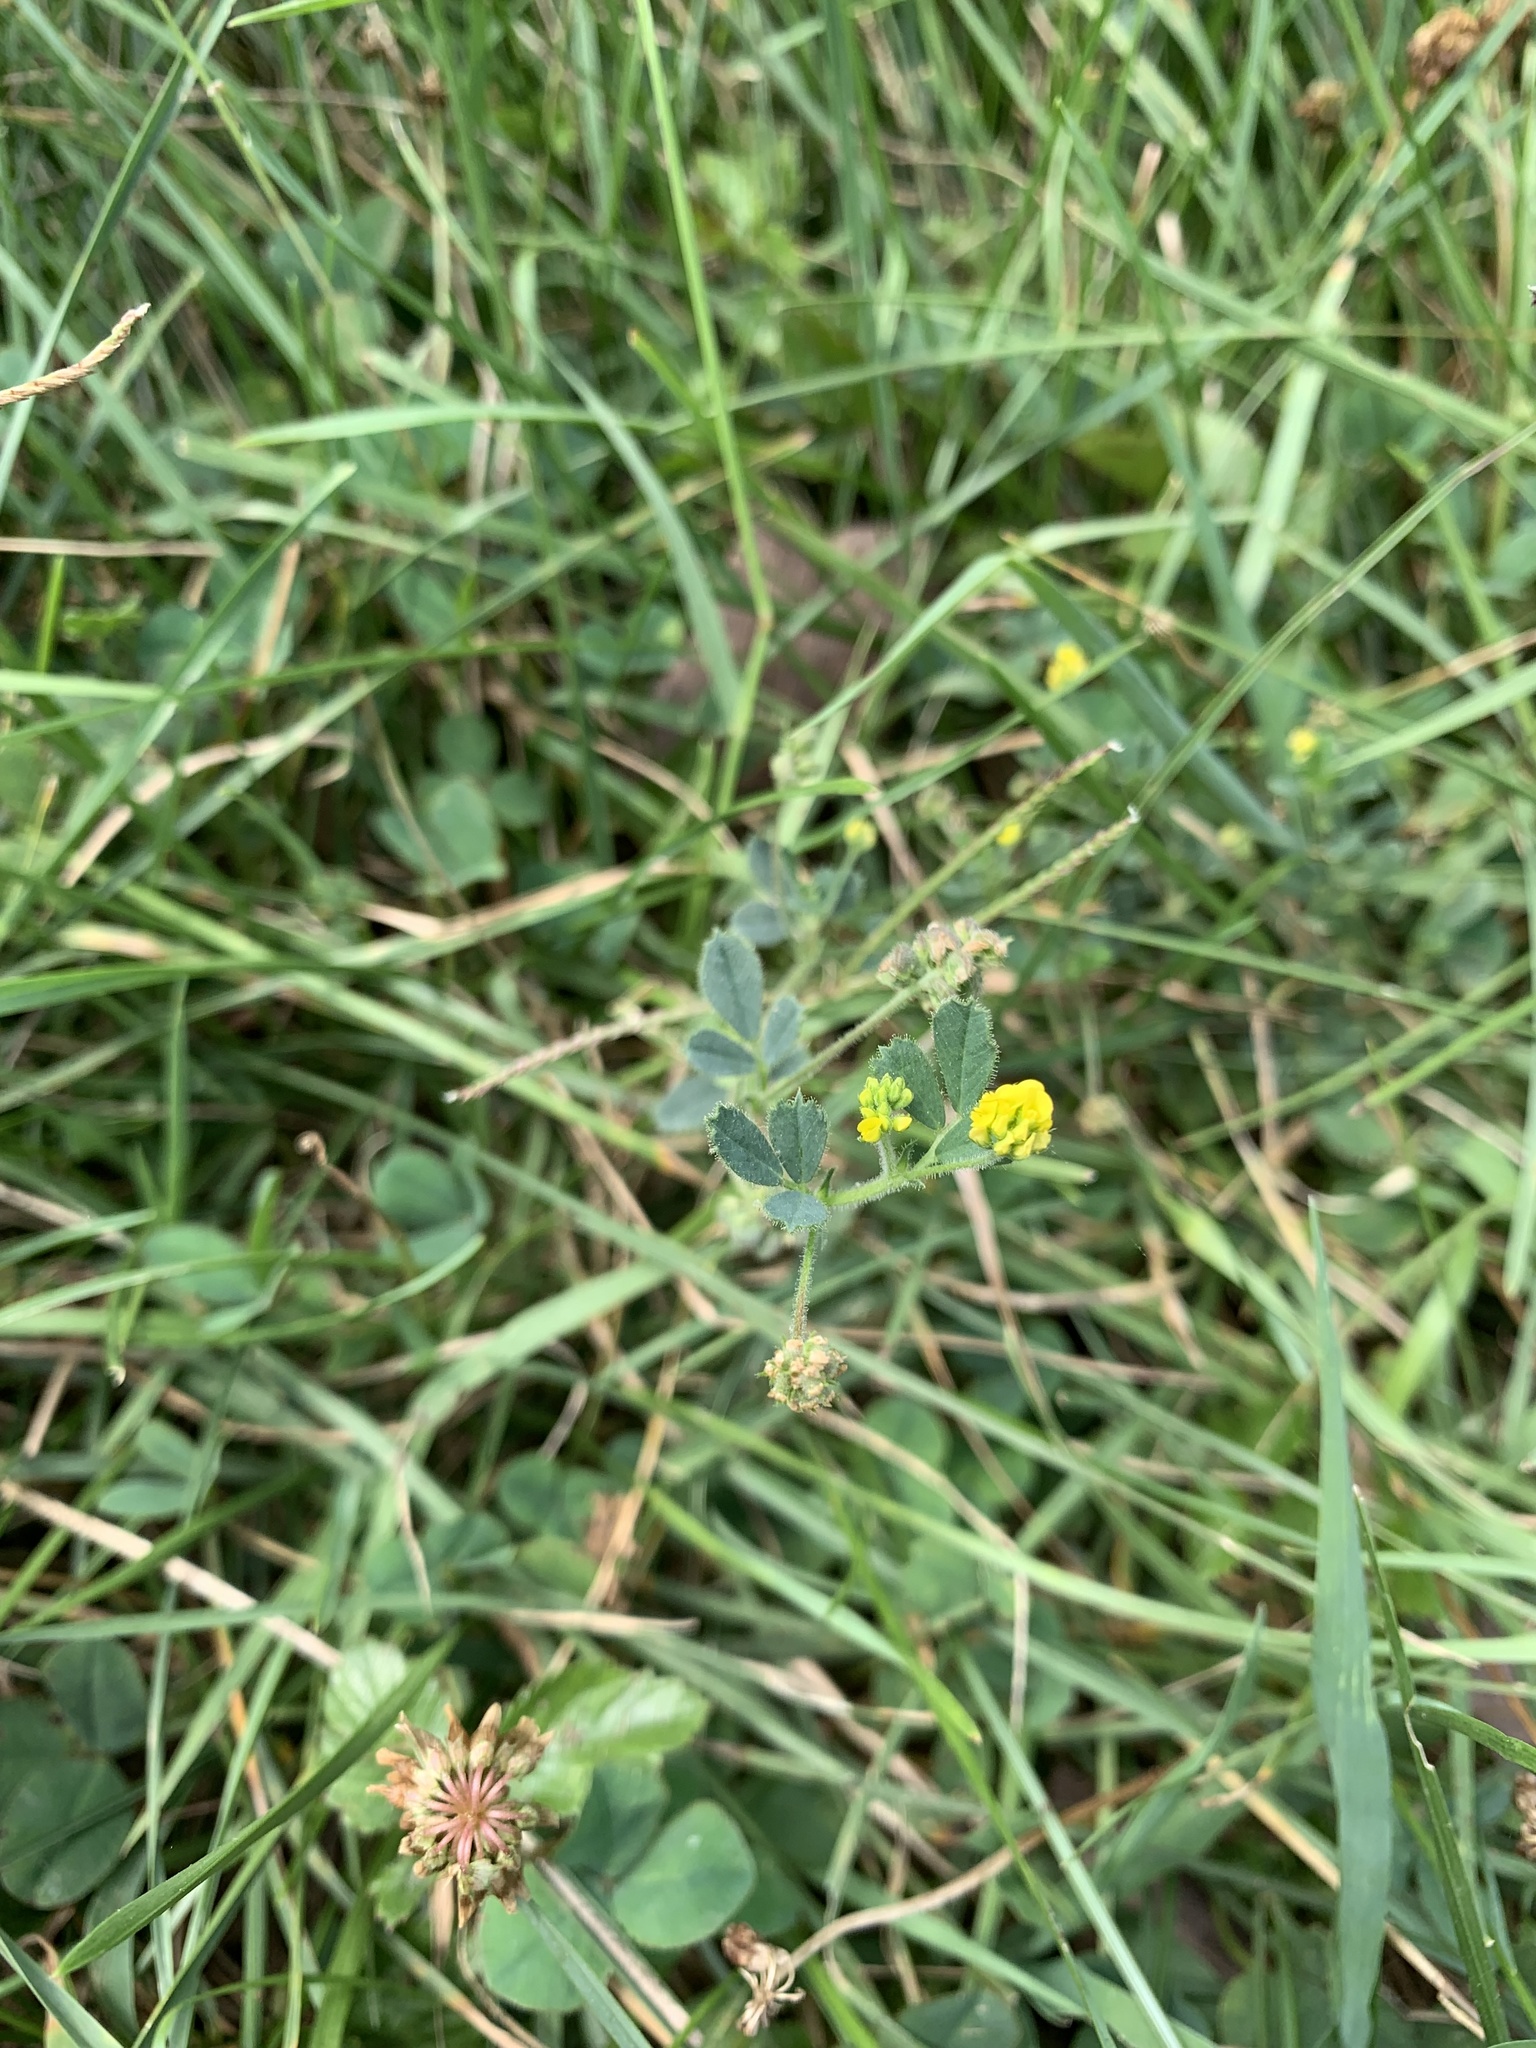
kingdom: Plantae
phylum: Tracheophyta
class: Magnoliopsida
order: Fabales
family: Fabaceae
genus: Medicago
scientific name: Medicago lupulina
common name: Black medick
